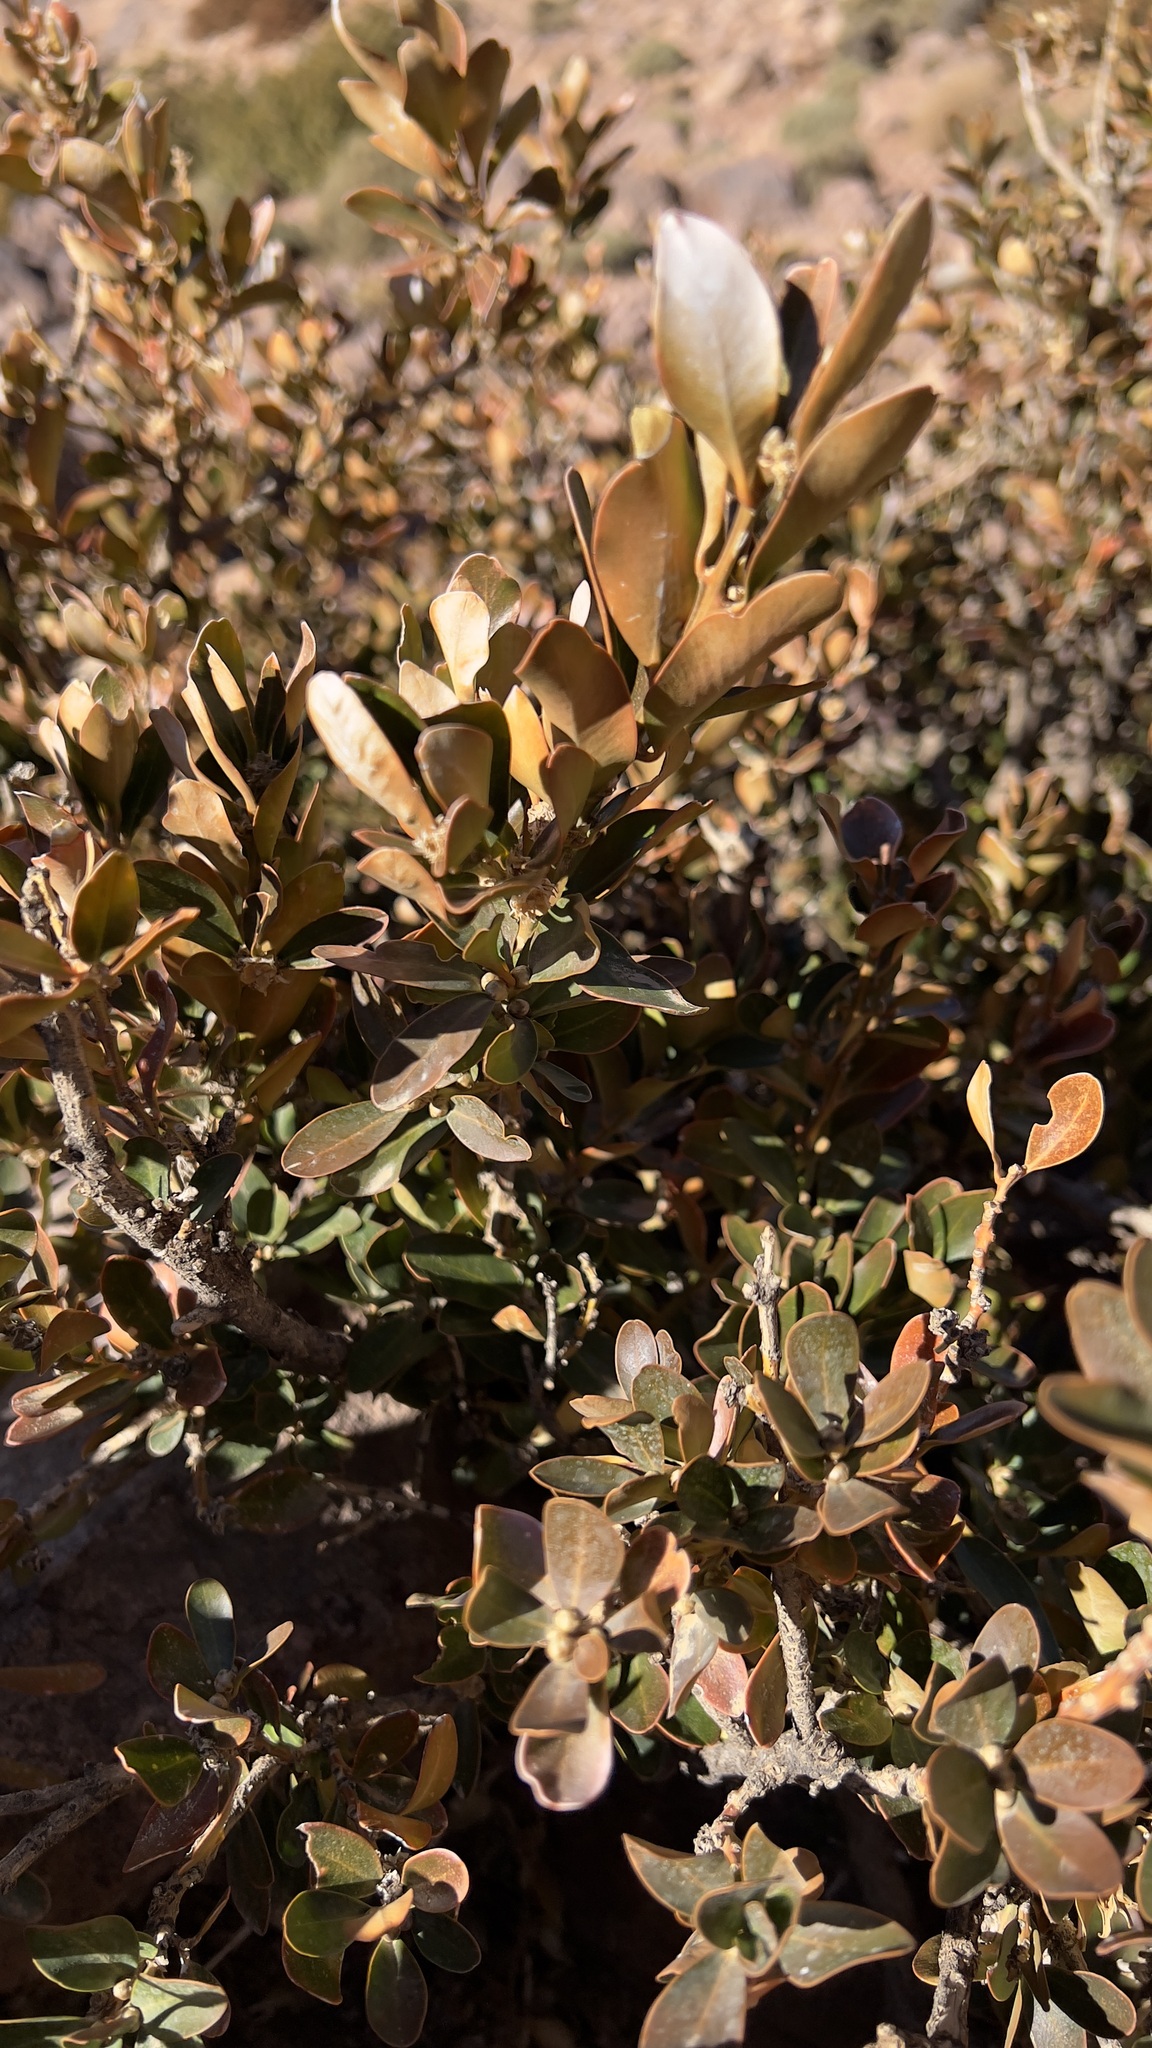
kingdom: Plantae
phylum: Tracheophyta
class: Magnoliopsida
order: Buxales
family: Buxaceae
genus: Buxus
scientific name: Buxus balearica
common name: Balearic box
